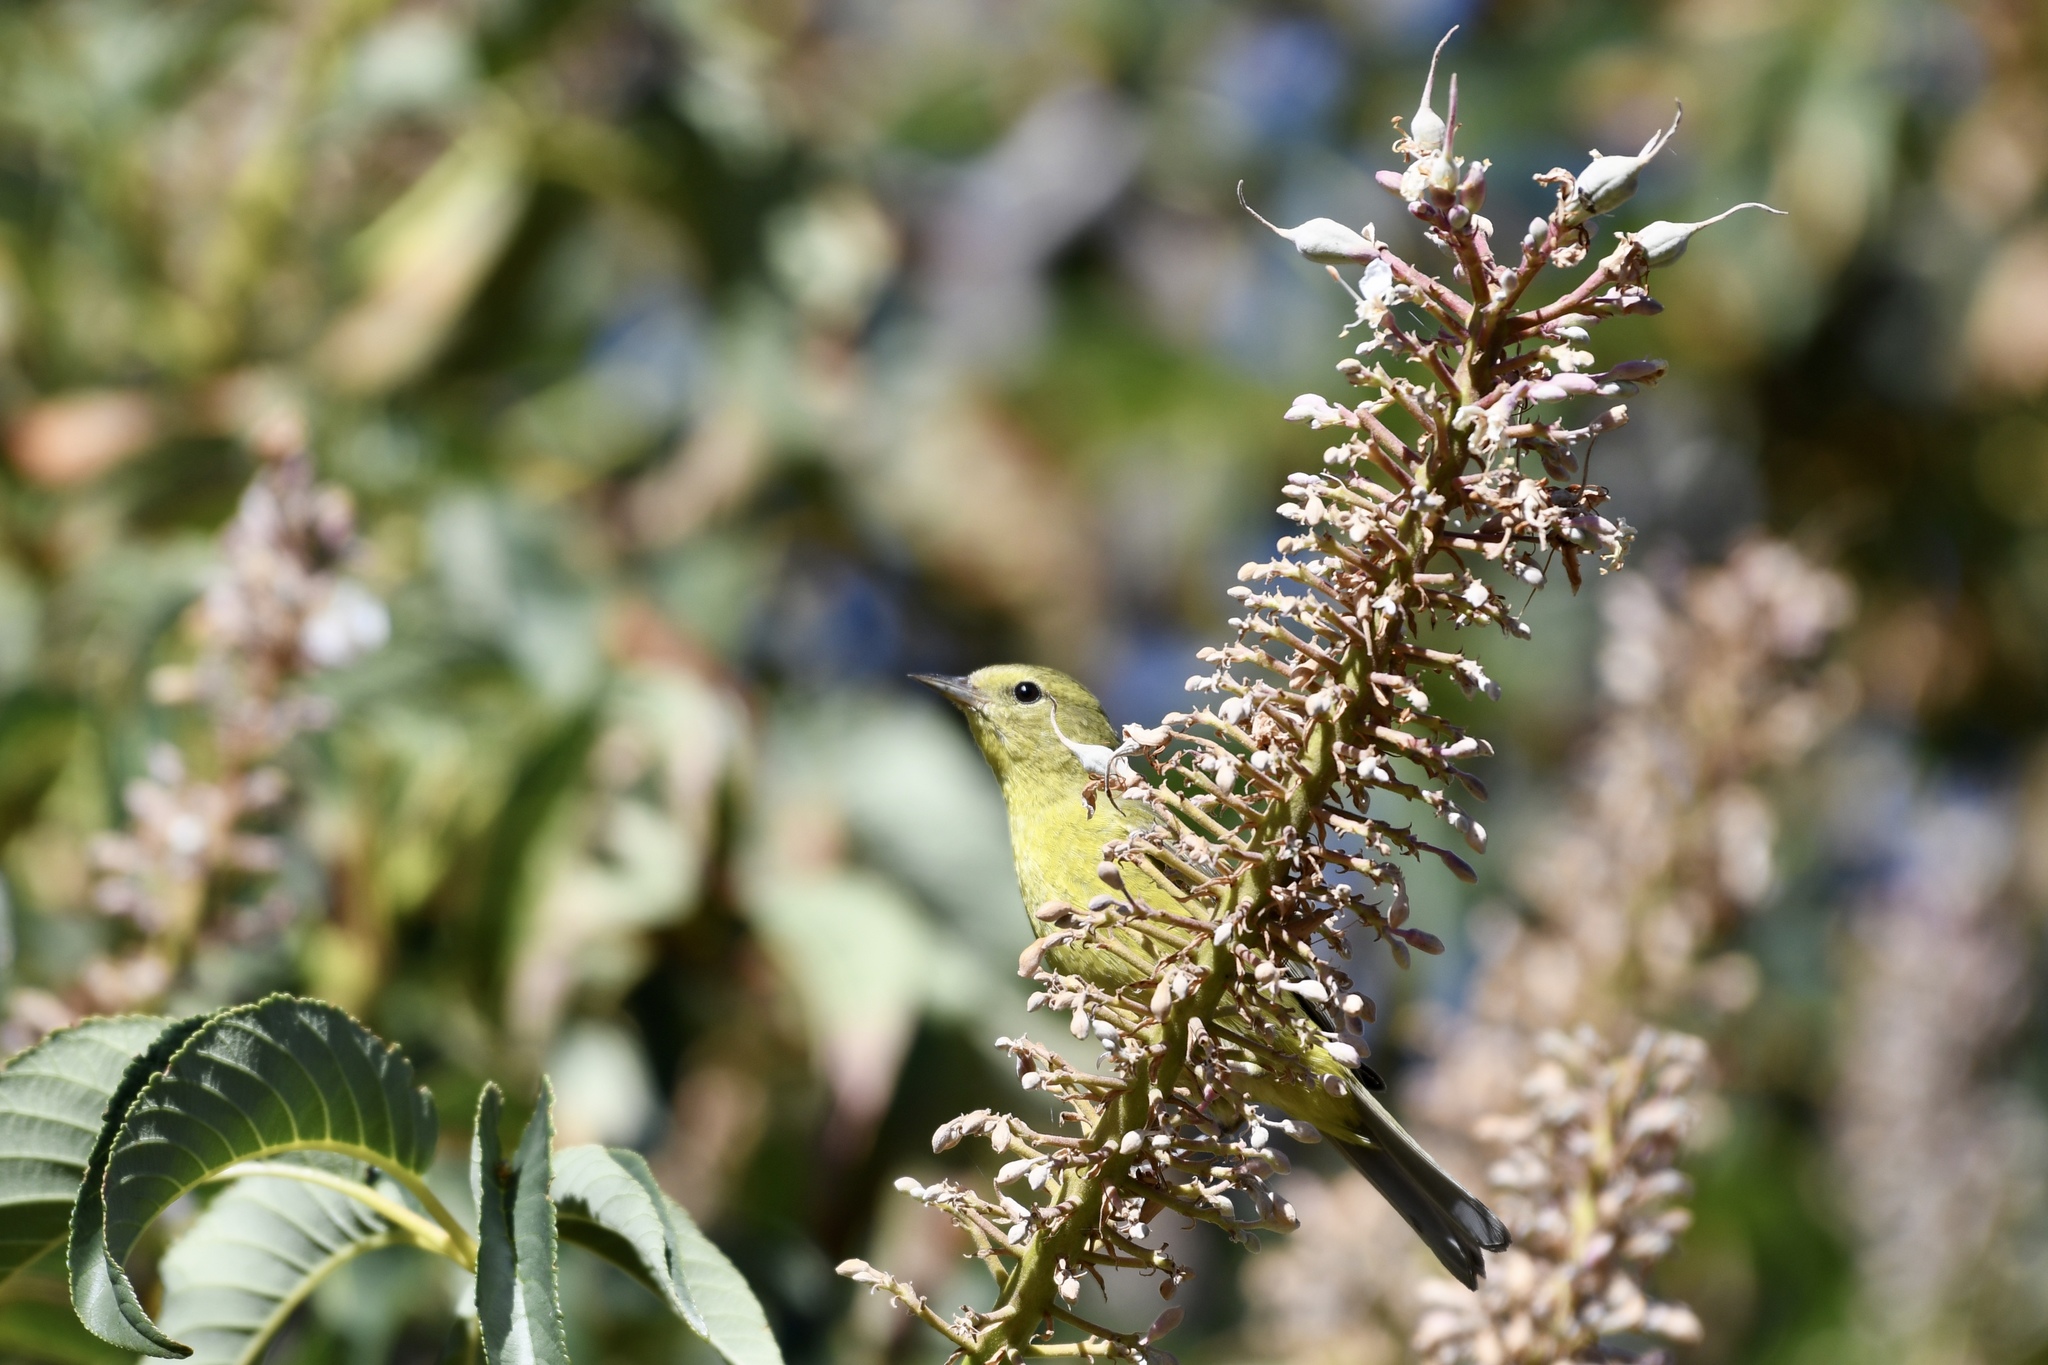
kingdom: Animalia
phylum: Chordata
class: Aves
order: Passeriformes
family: Parulidae
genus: Leiothlypis
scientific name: Leiothlypis celata
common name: Orange-crowned warbler
